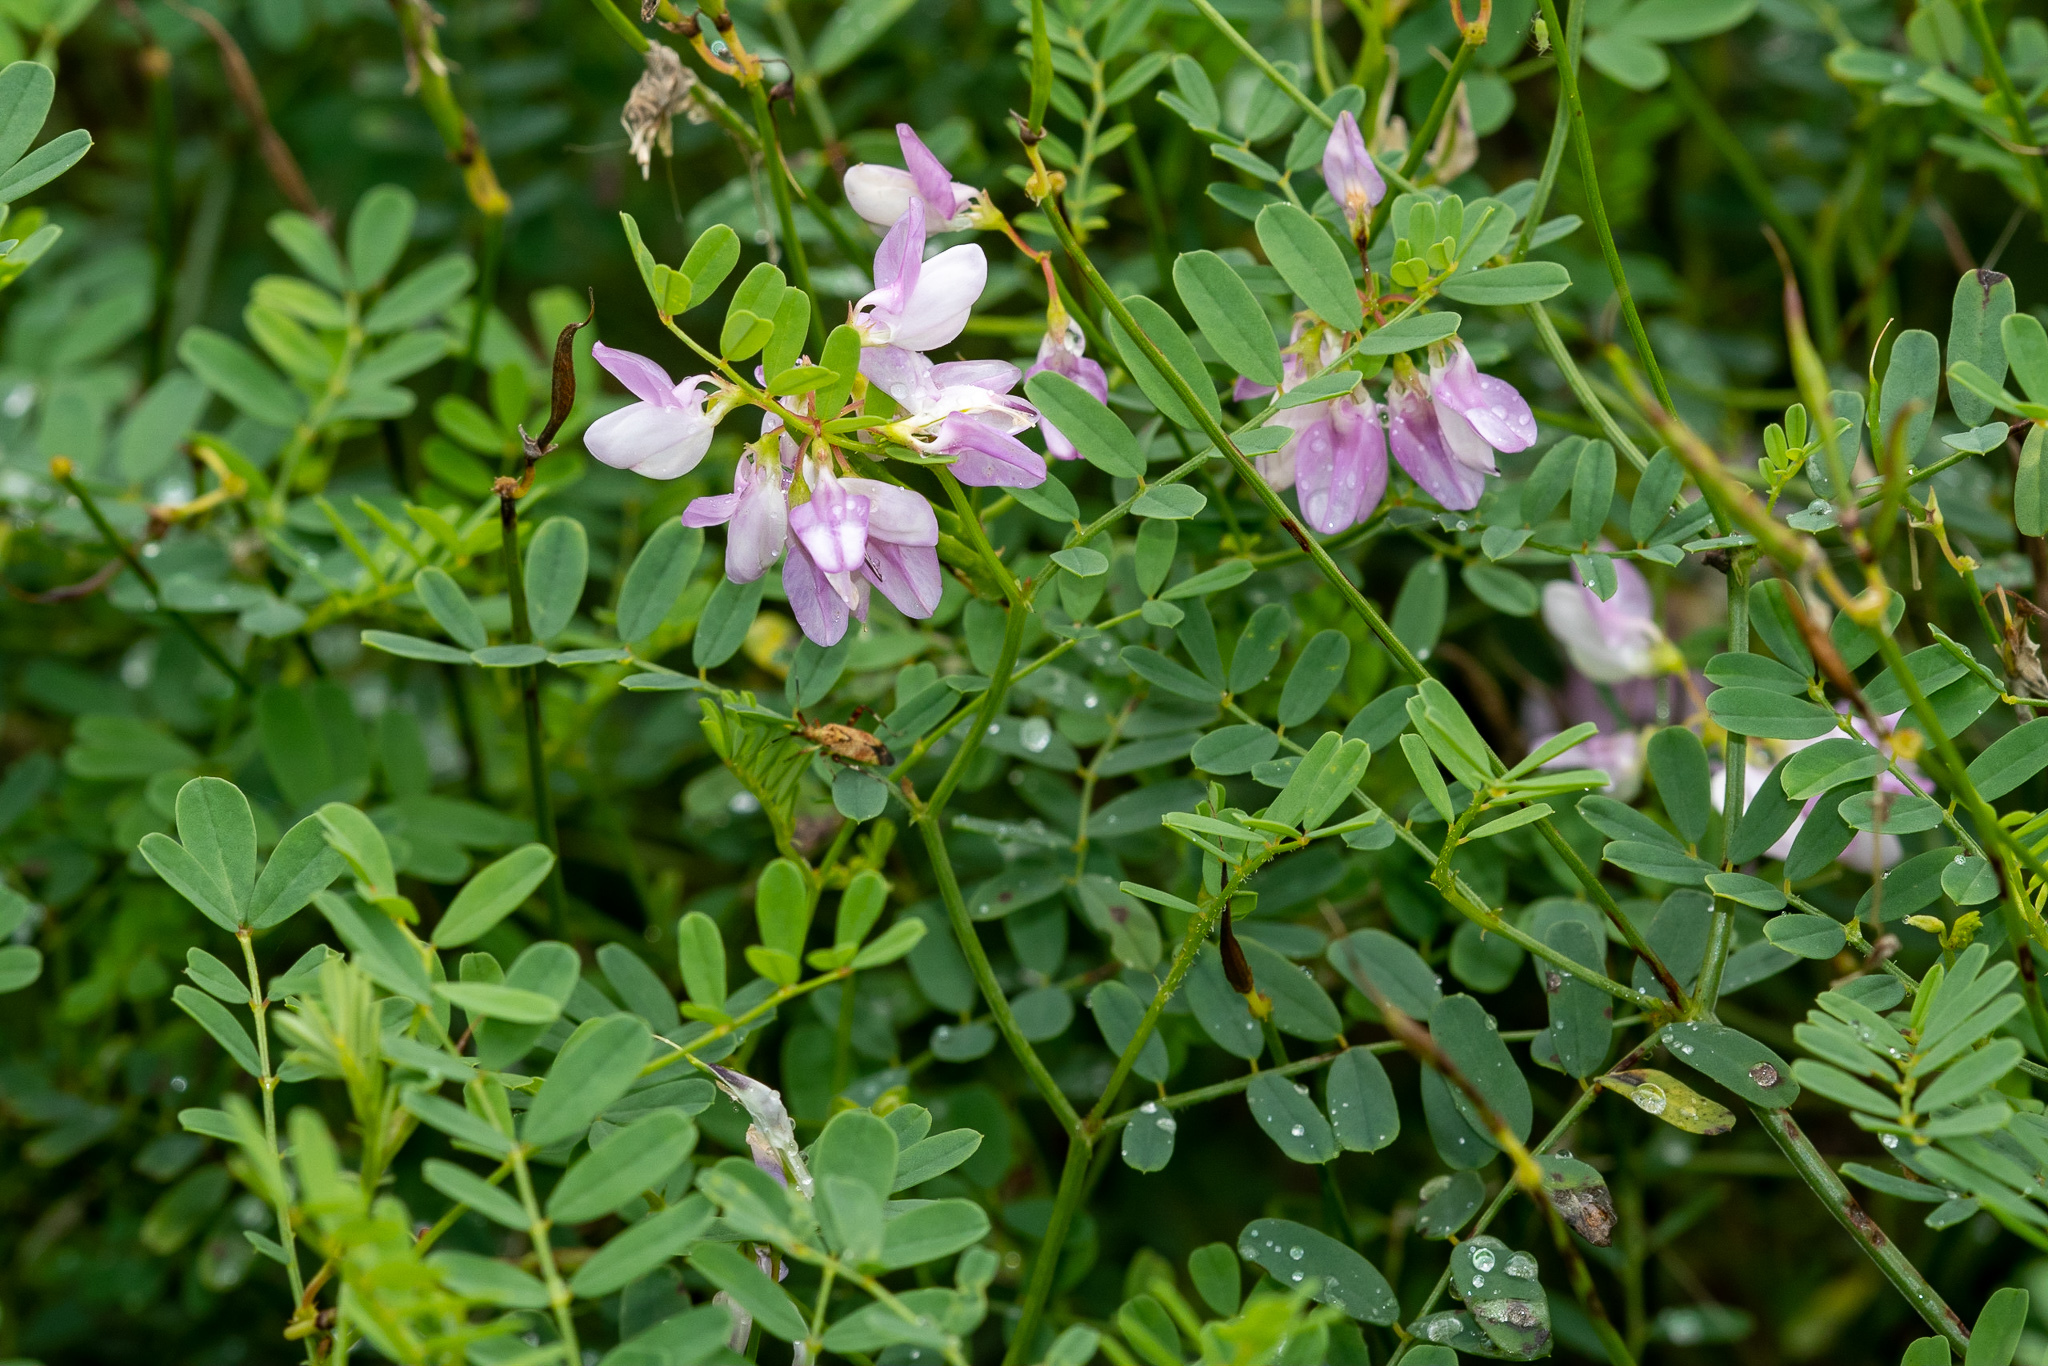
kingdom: Plantae
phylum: Tracheophyta
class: Magnoliopsida
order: Fabales
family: Fabaceae
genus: Coronilla
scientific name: Coronilla varia
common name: Crownvetch
